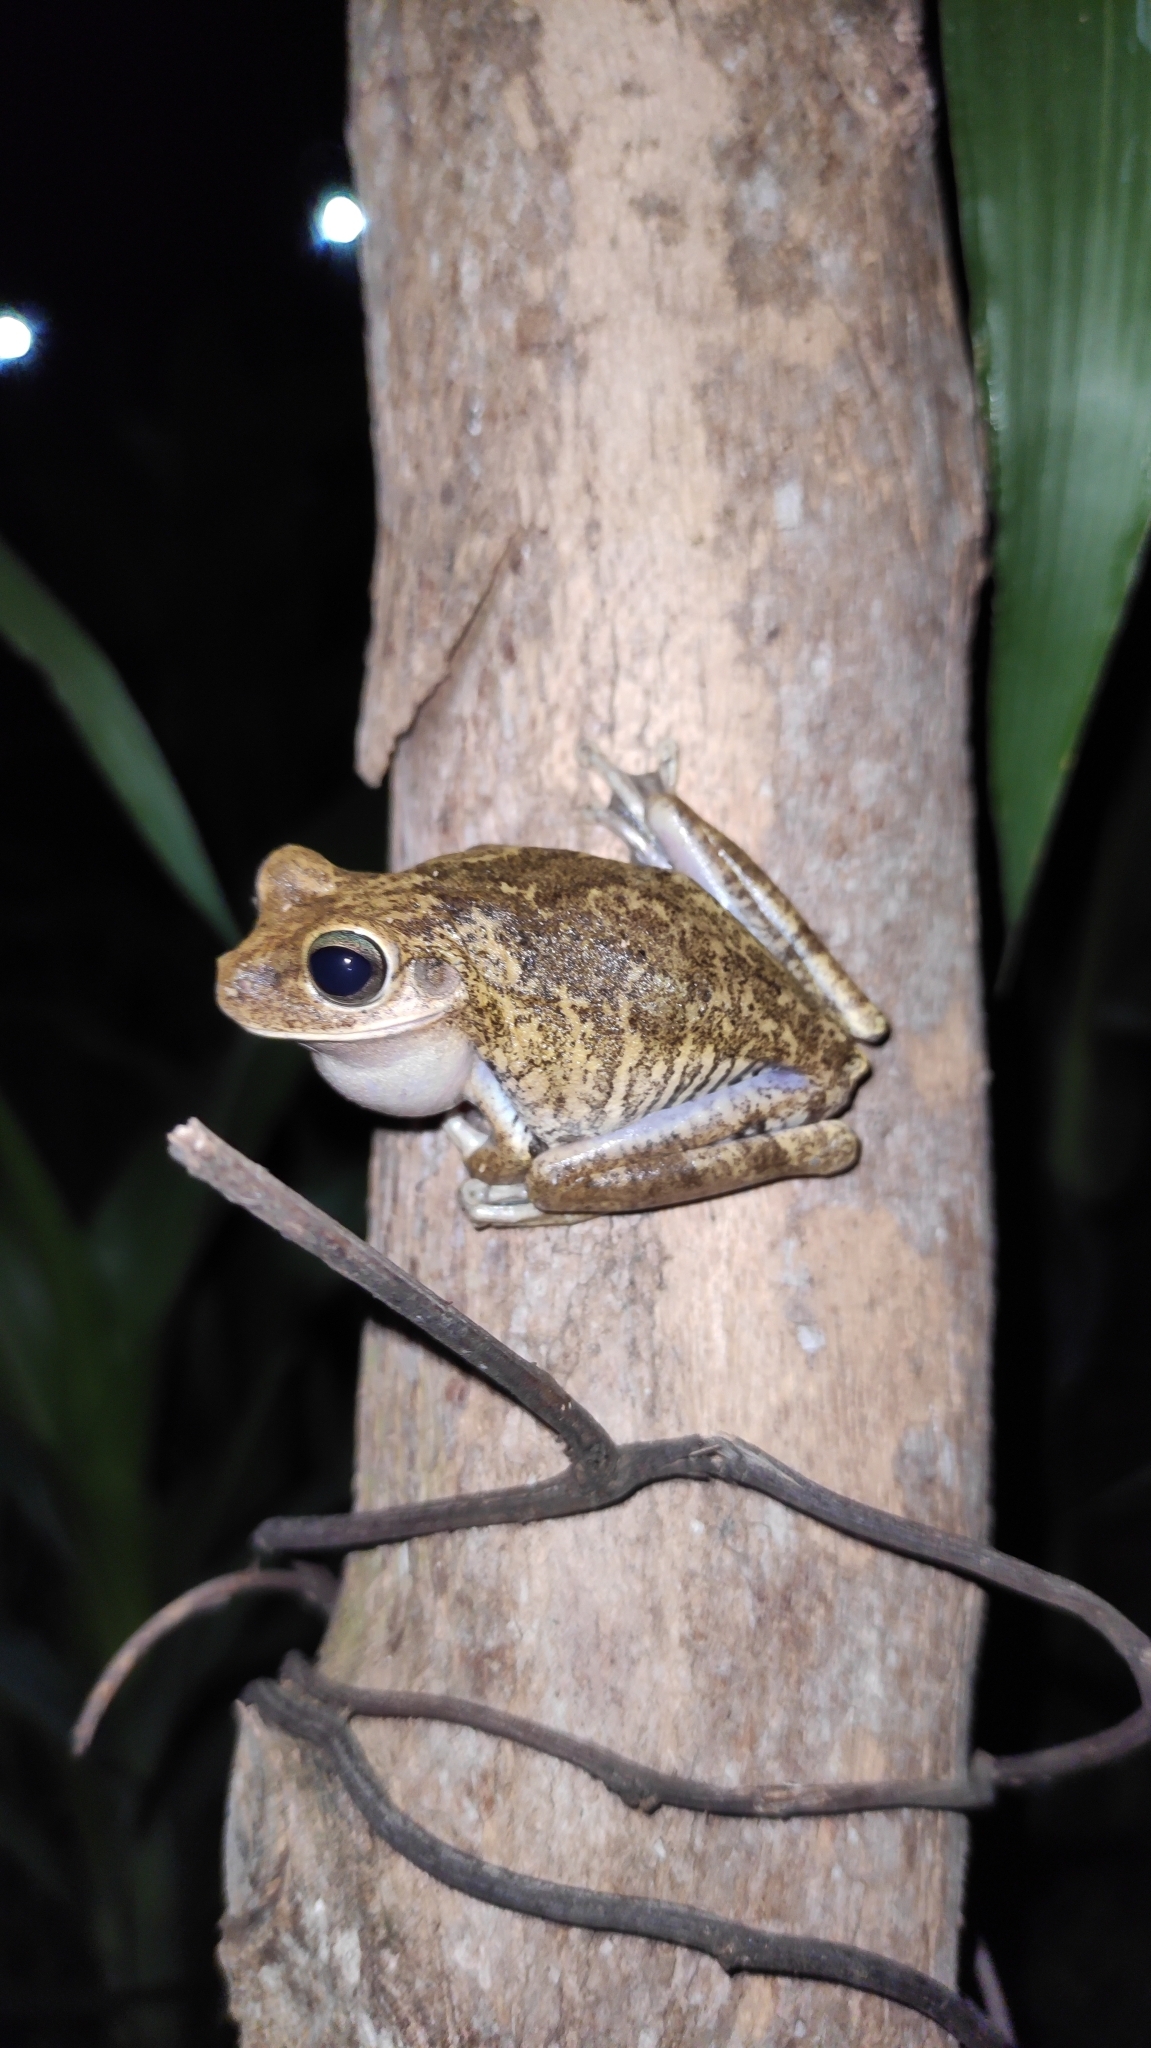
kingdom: Animalia
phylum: Chordata
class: Amphibia
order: Anura
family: Hylidae
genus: Boana
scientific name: Boana pugnax
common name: Chirique-flusse treefrog
